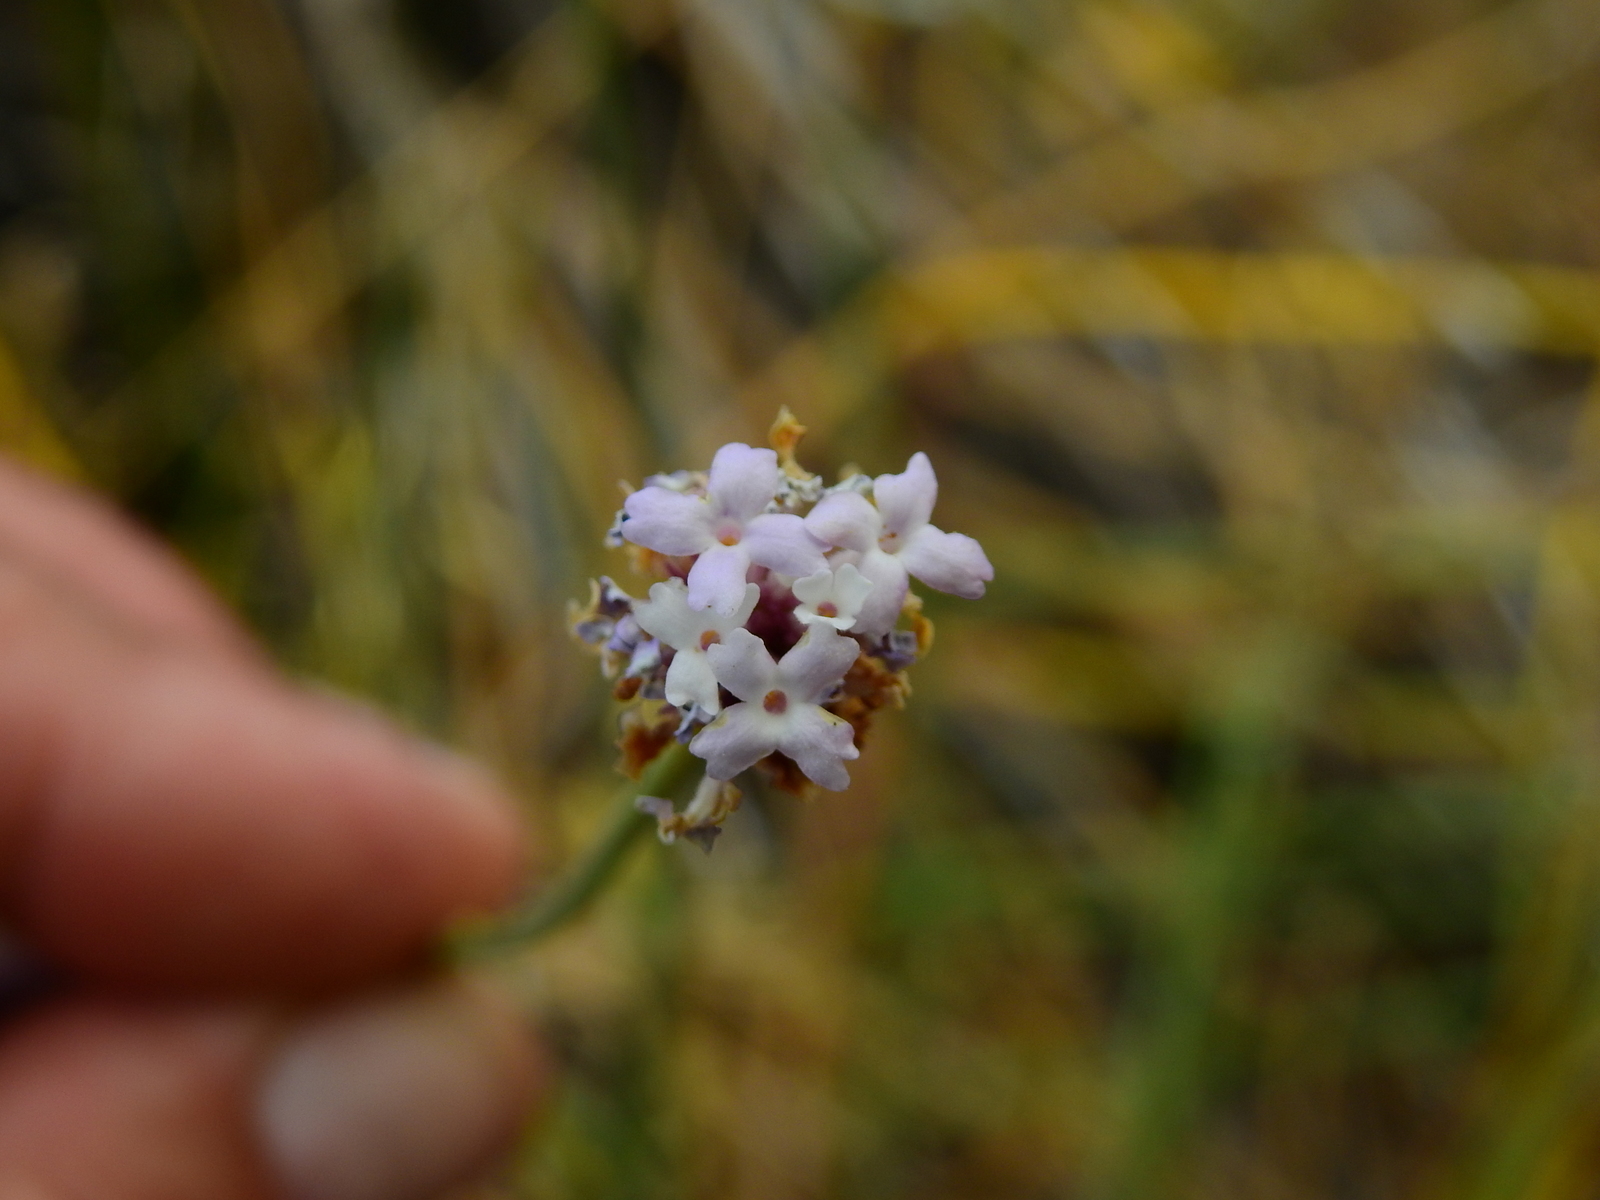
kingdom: Plantae
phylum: Tracheophyta
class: Magnoliopsida
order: Lamiales
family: Verbenaceae
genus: Junellia
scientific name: Junellia spathulata
